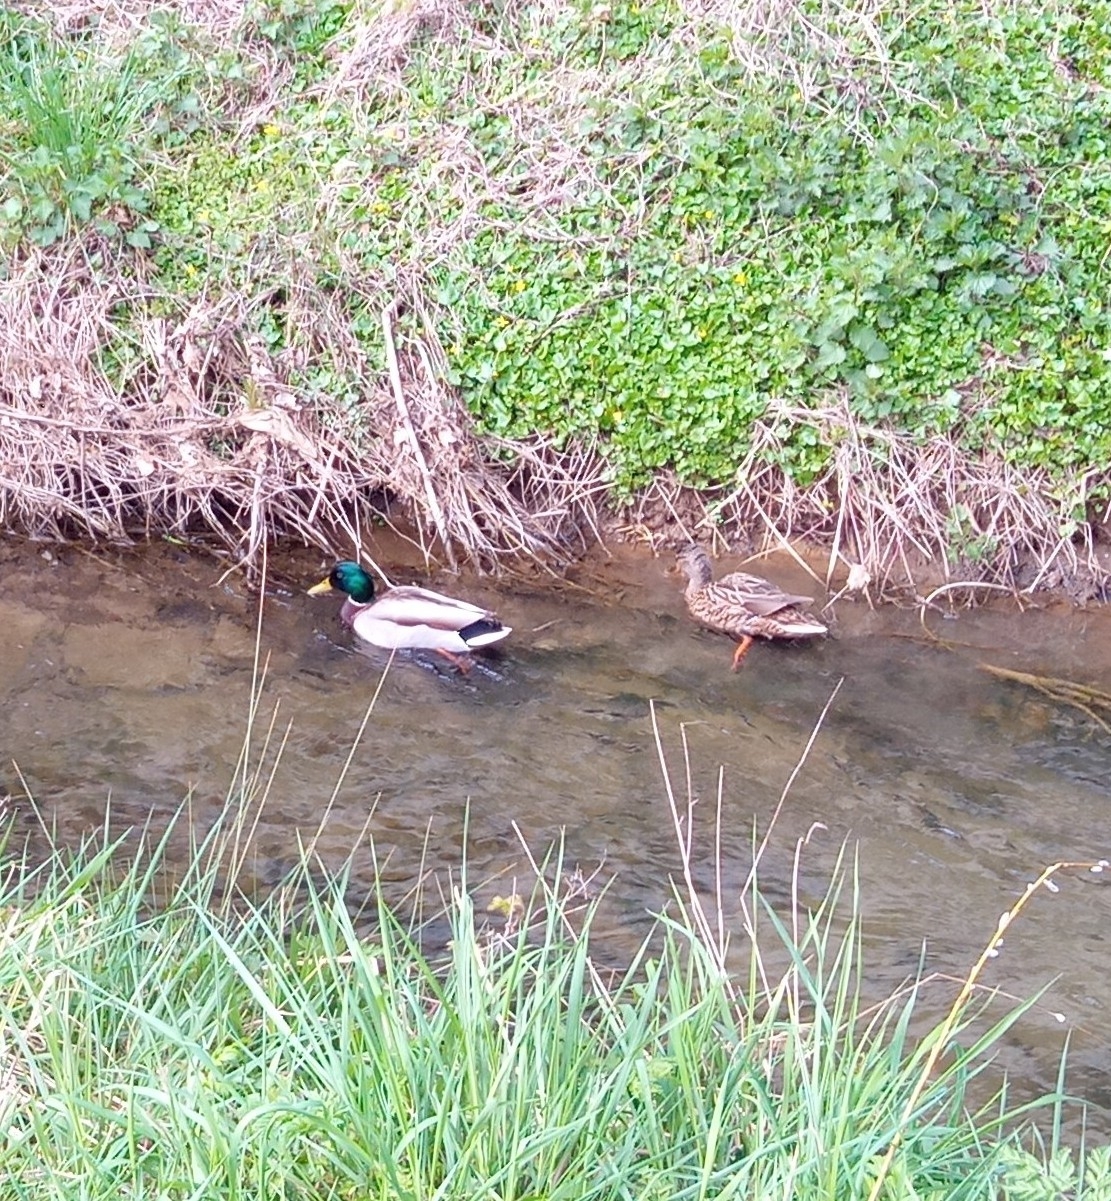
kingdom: Animalia
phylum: Chordata
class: Aves
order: Anseriformes
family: Anatidae
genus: Anas
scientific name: Anas platyrhynchos
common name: Mallard
